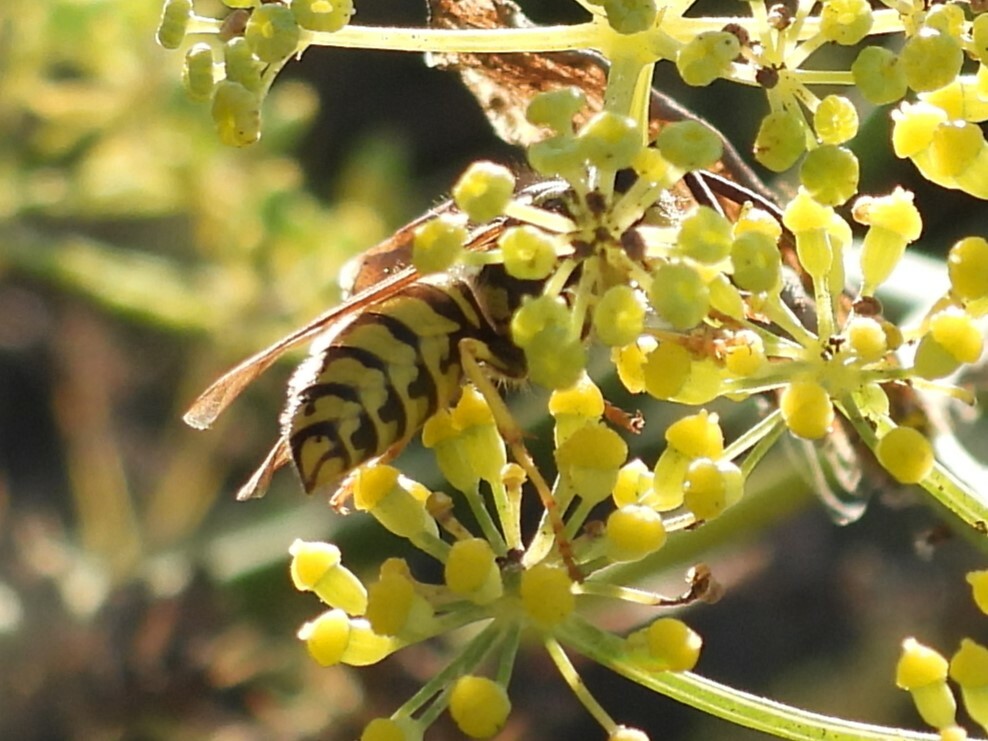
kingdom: Animalia
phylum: Arthropoda
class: Insecta
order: Hymenoptera
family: Vespidae
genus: Vespula
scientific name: Vespula pensylvanica
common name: Western yellowjacket
